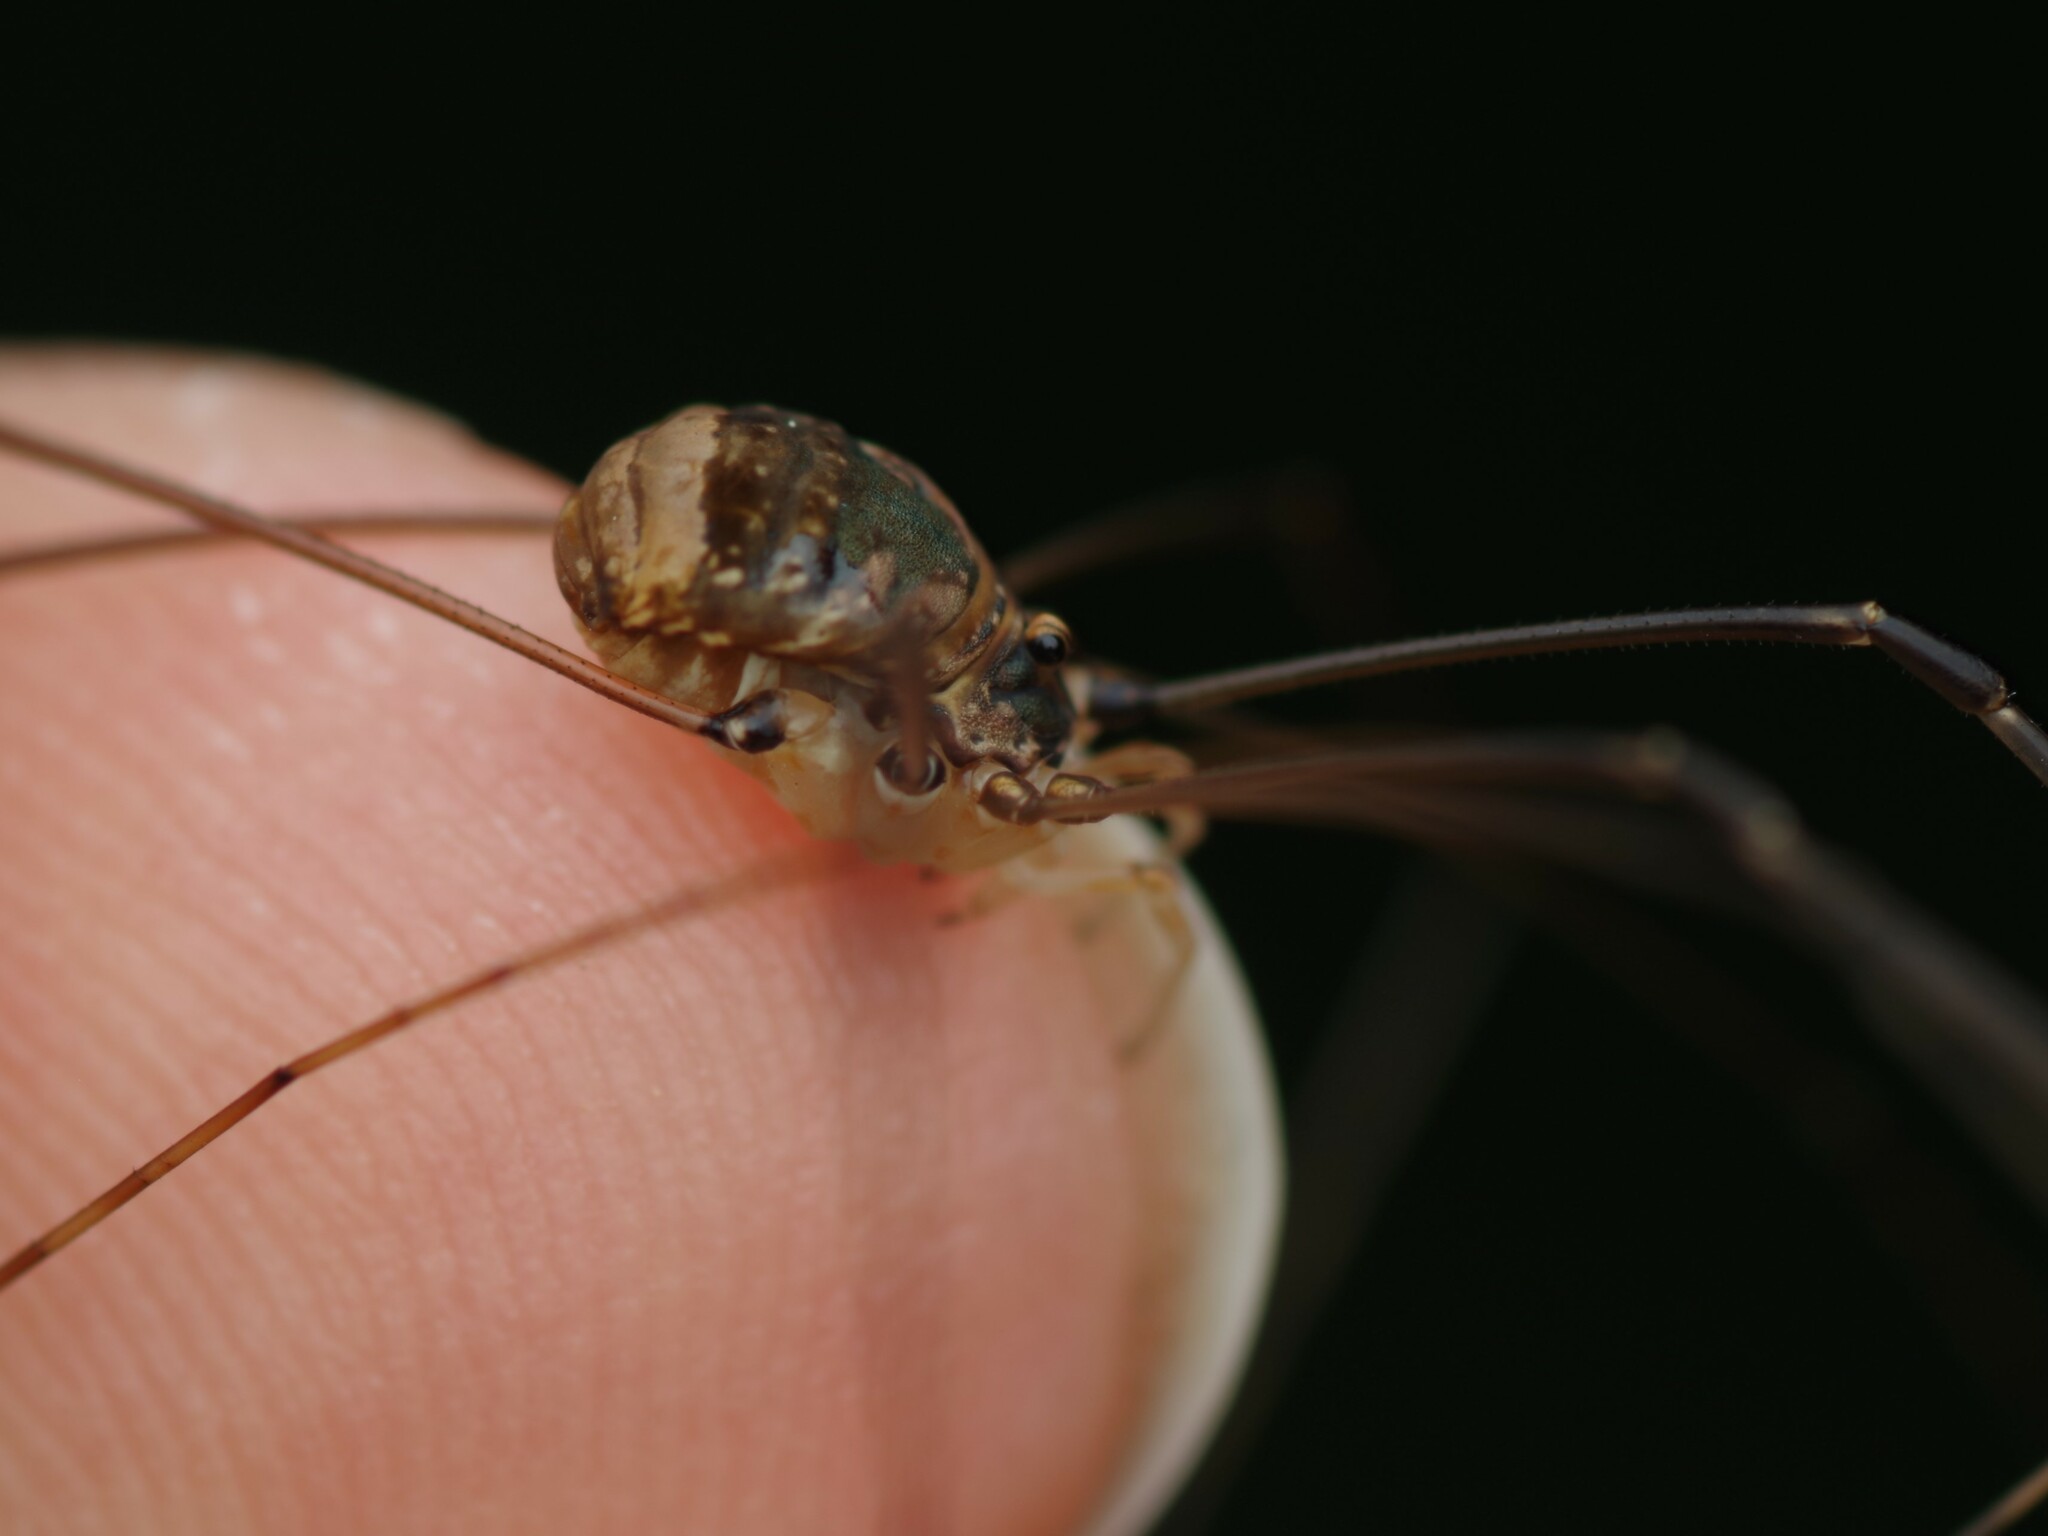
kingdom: Animalia
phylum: Arthropoda
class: Arachnida
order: Opiliones
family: Sclerosomatidae
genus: Leiobunum
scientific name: Leiobunum blackwalli
